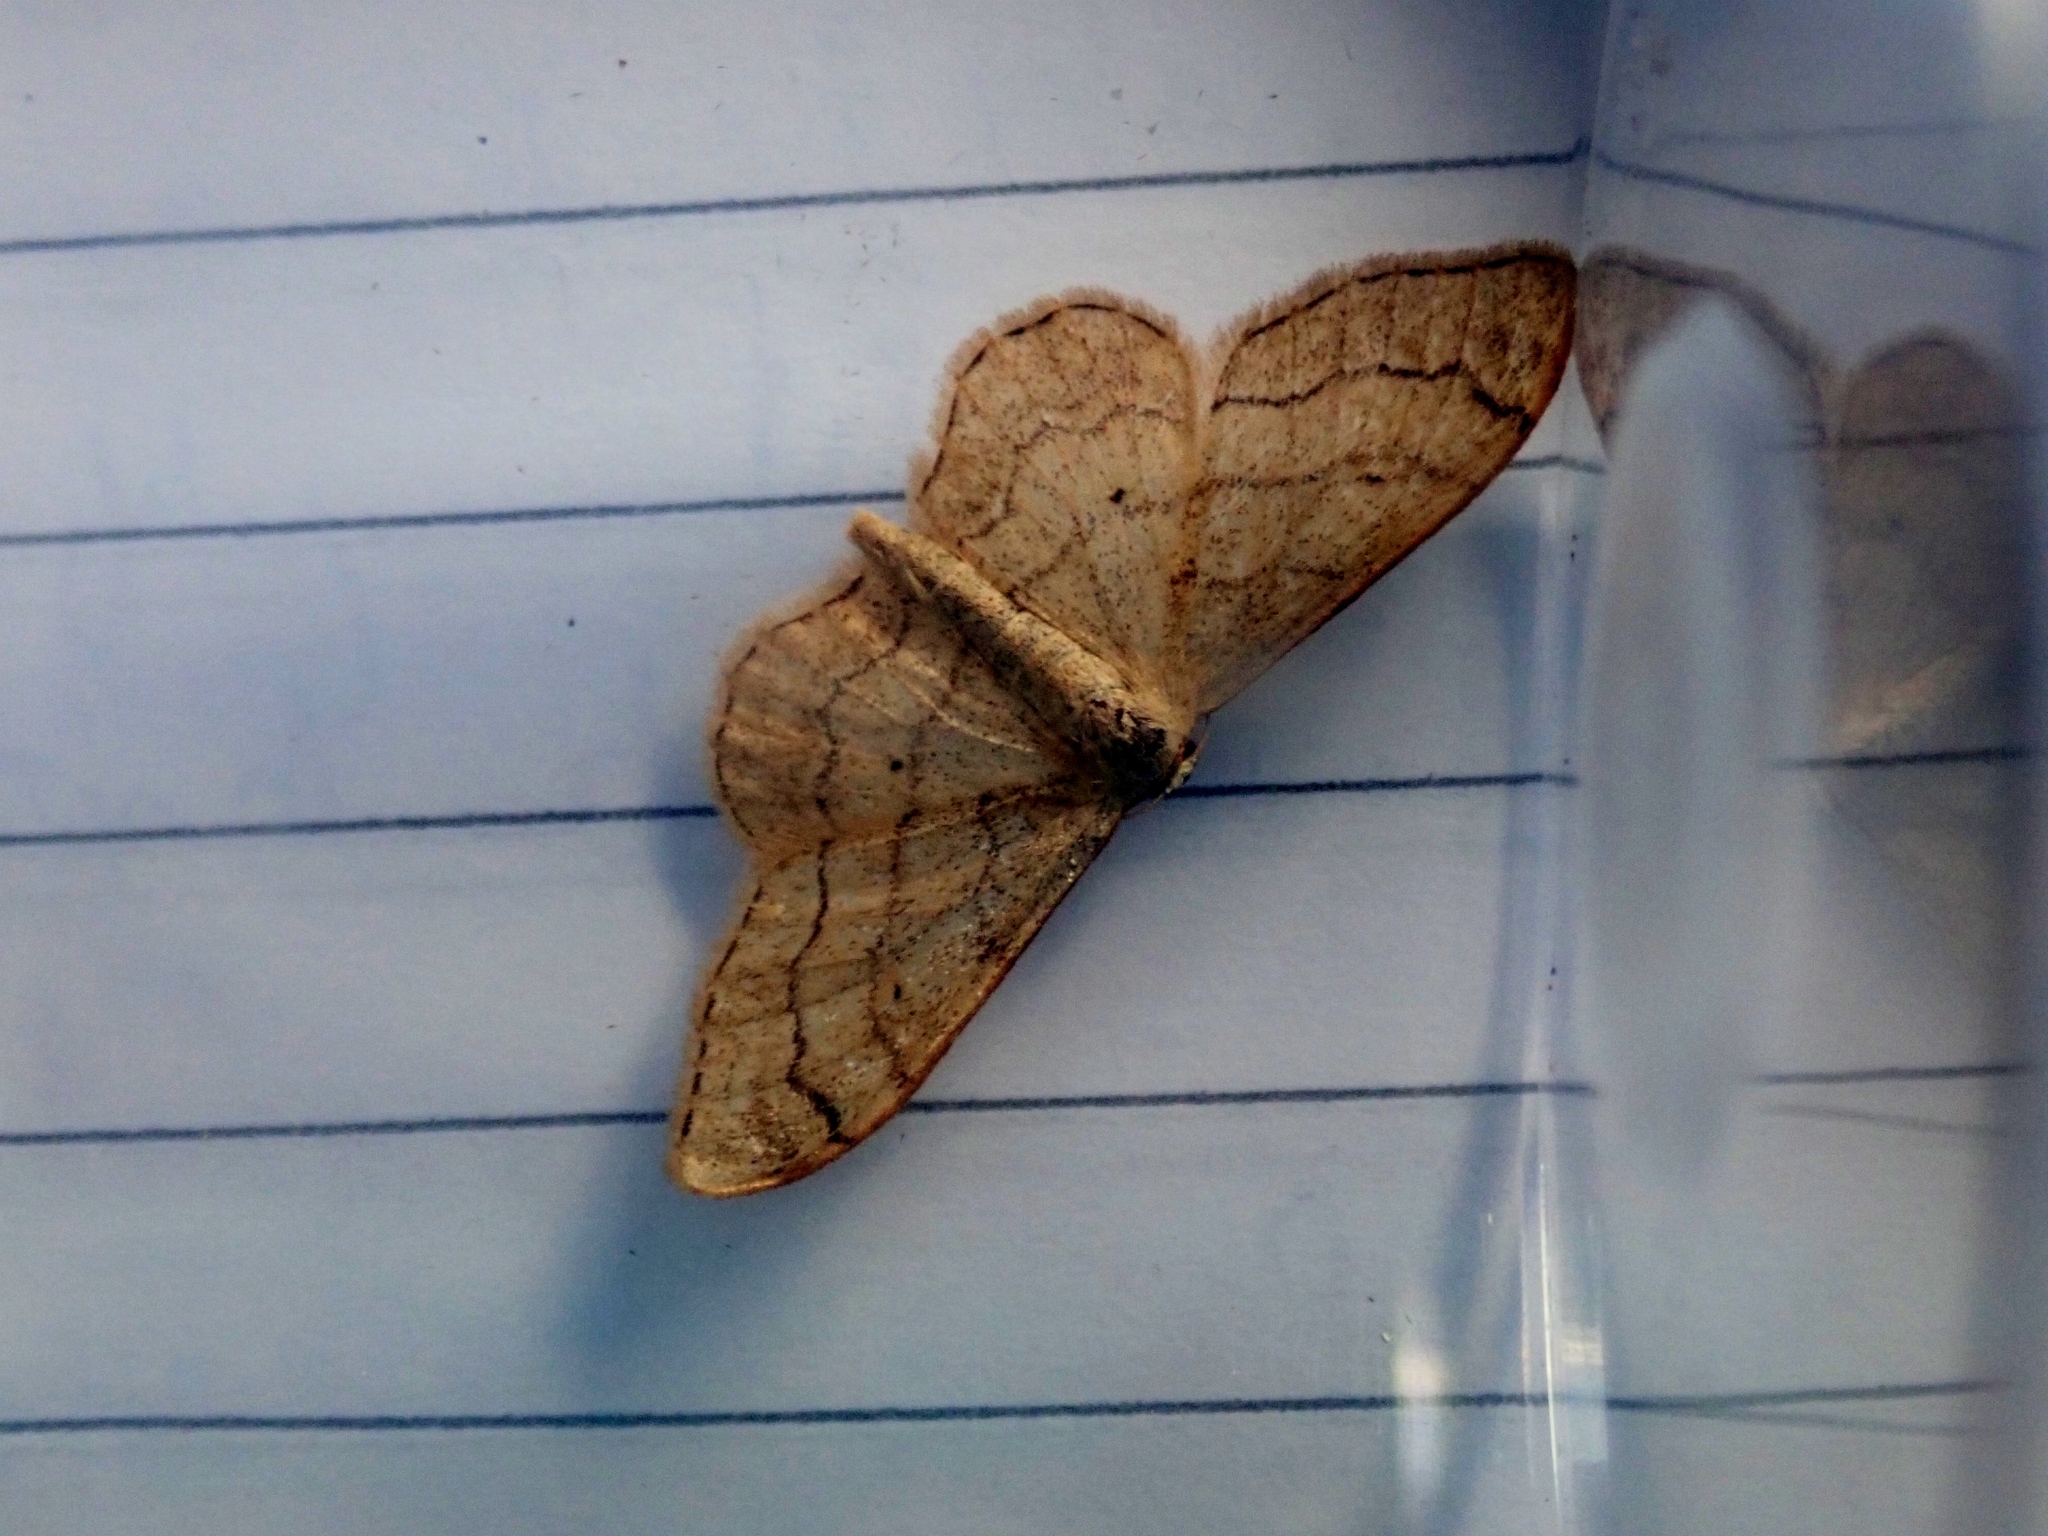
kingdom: Animalia
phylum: Arthropoda
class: Insecta
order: Lepidoptera
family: Geometridae
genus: Idaea
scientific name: Idaea aversata
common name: Riband wave
